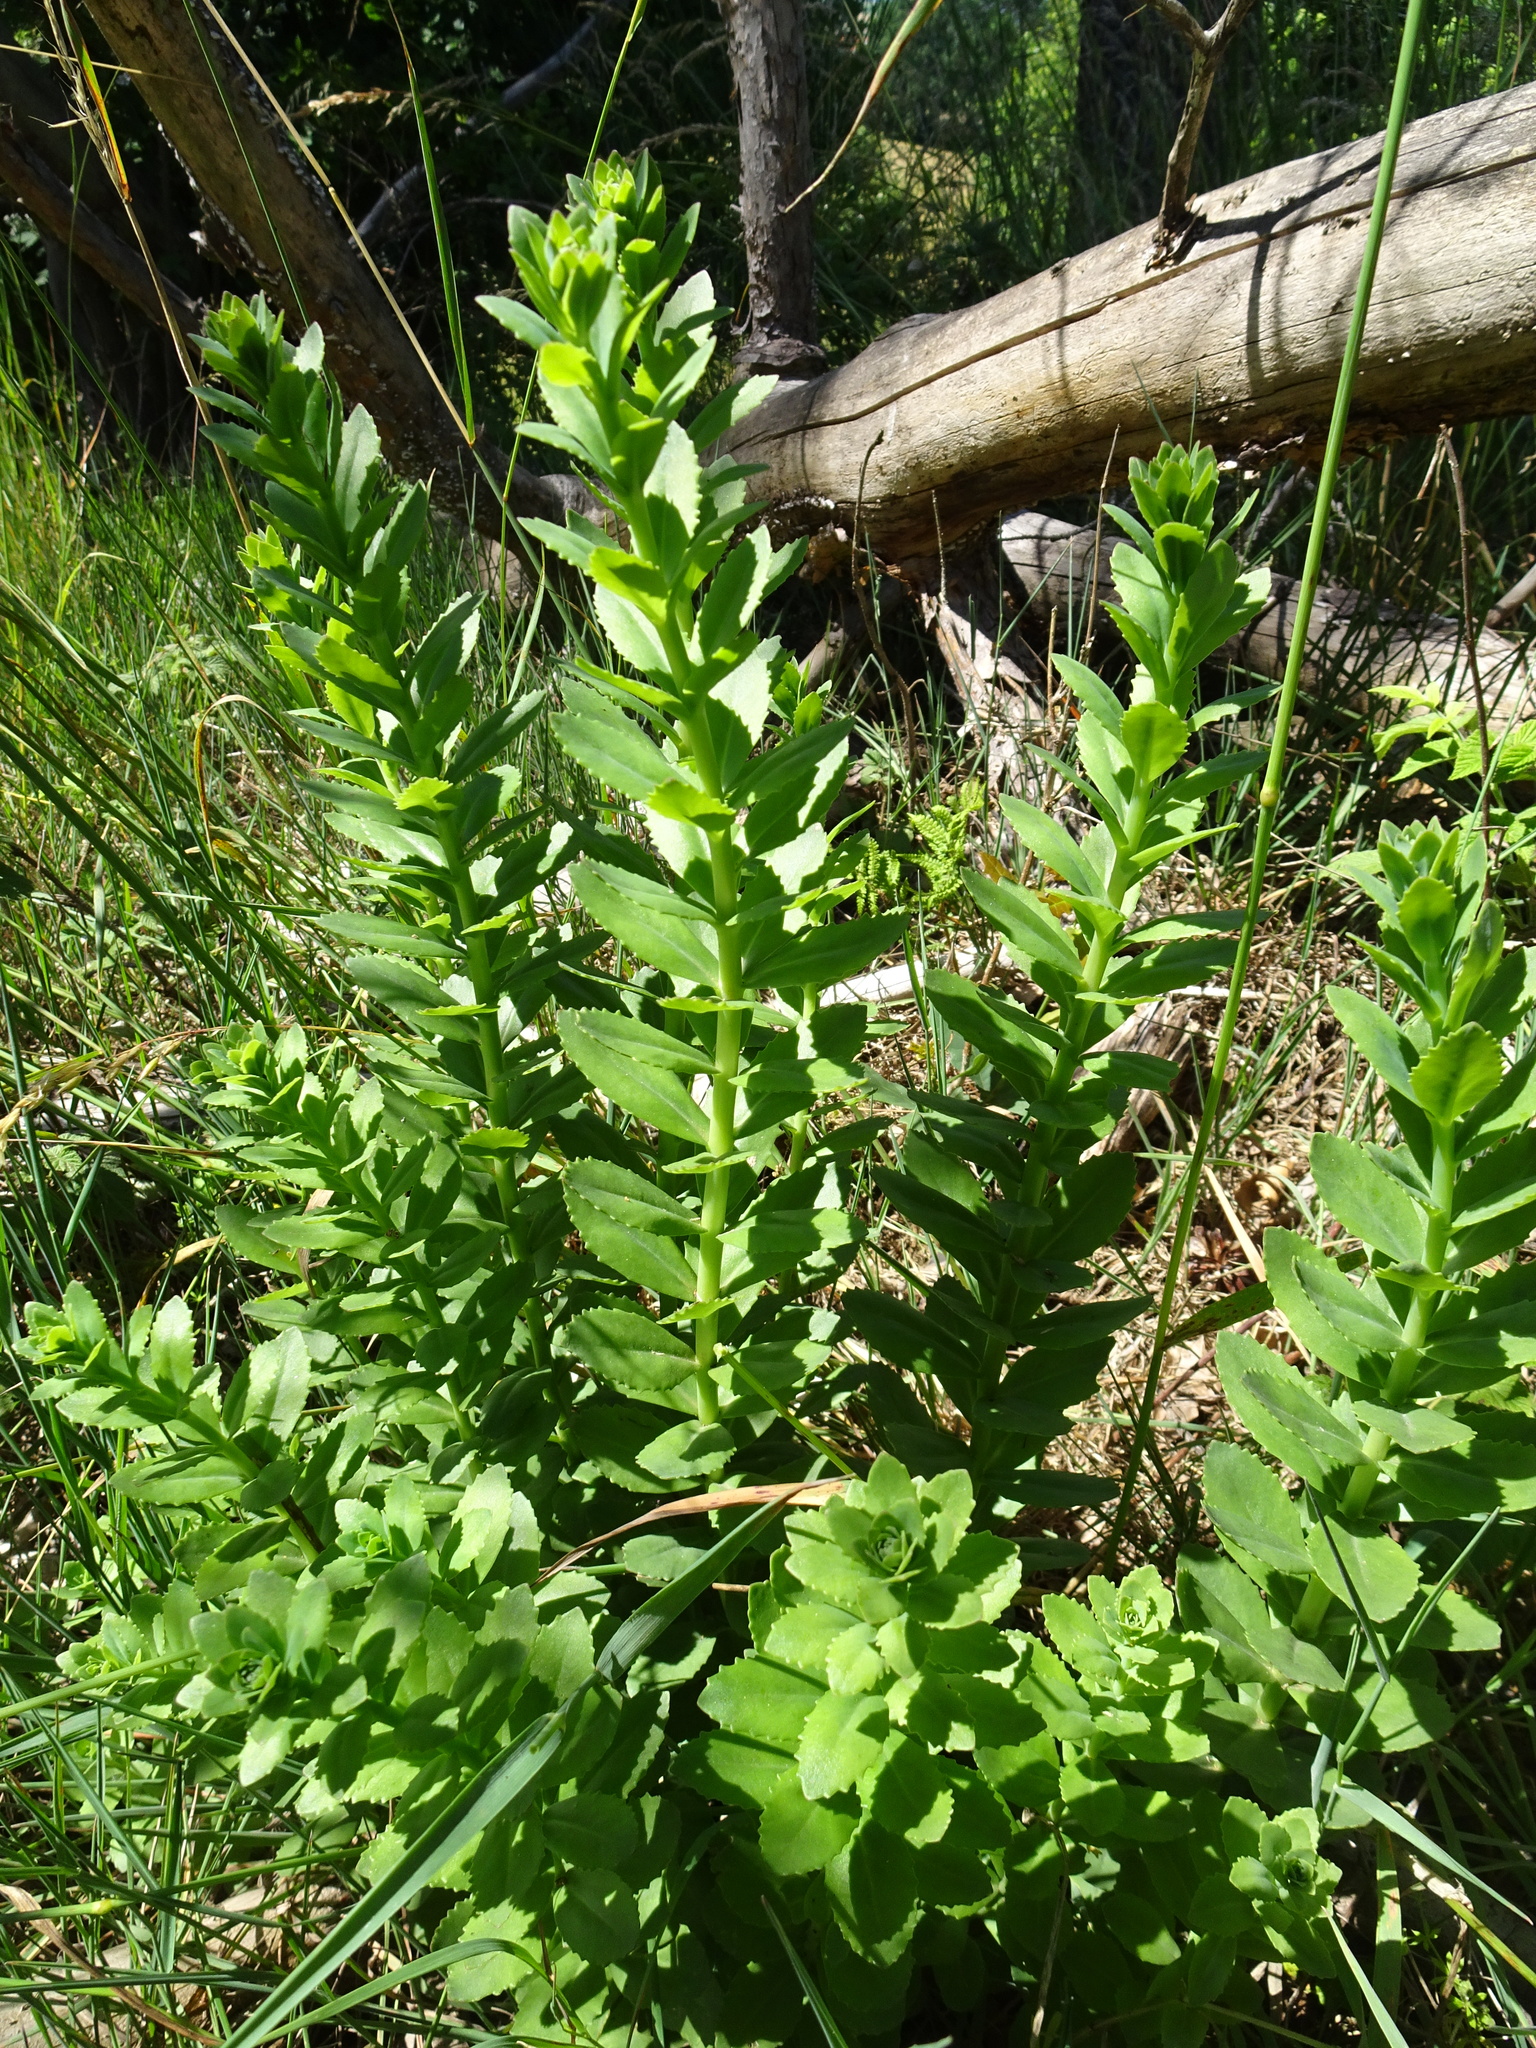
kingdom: Plantae
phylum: Tracheophyta
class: Magnoliopsida
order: Saxifragales
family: Crassulaceae
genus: Hylotelephium
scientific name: Hylotelephium telephium
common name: Live-forever
